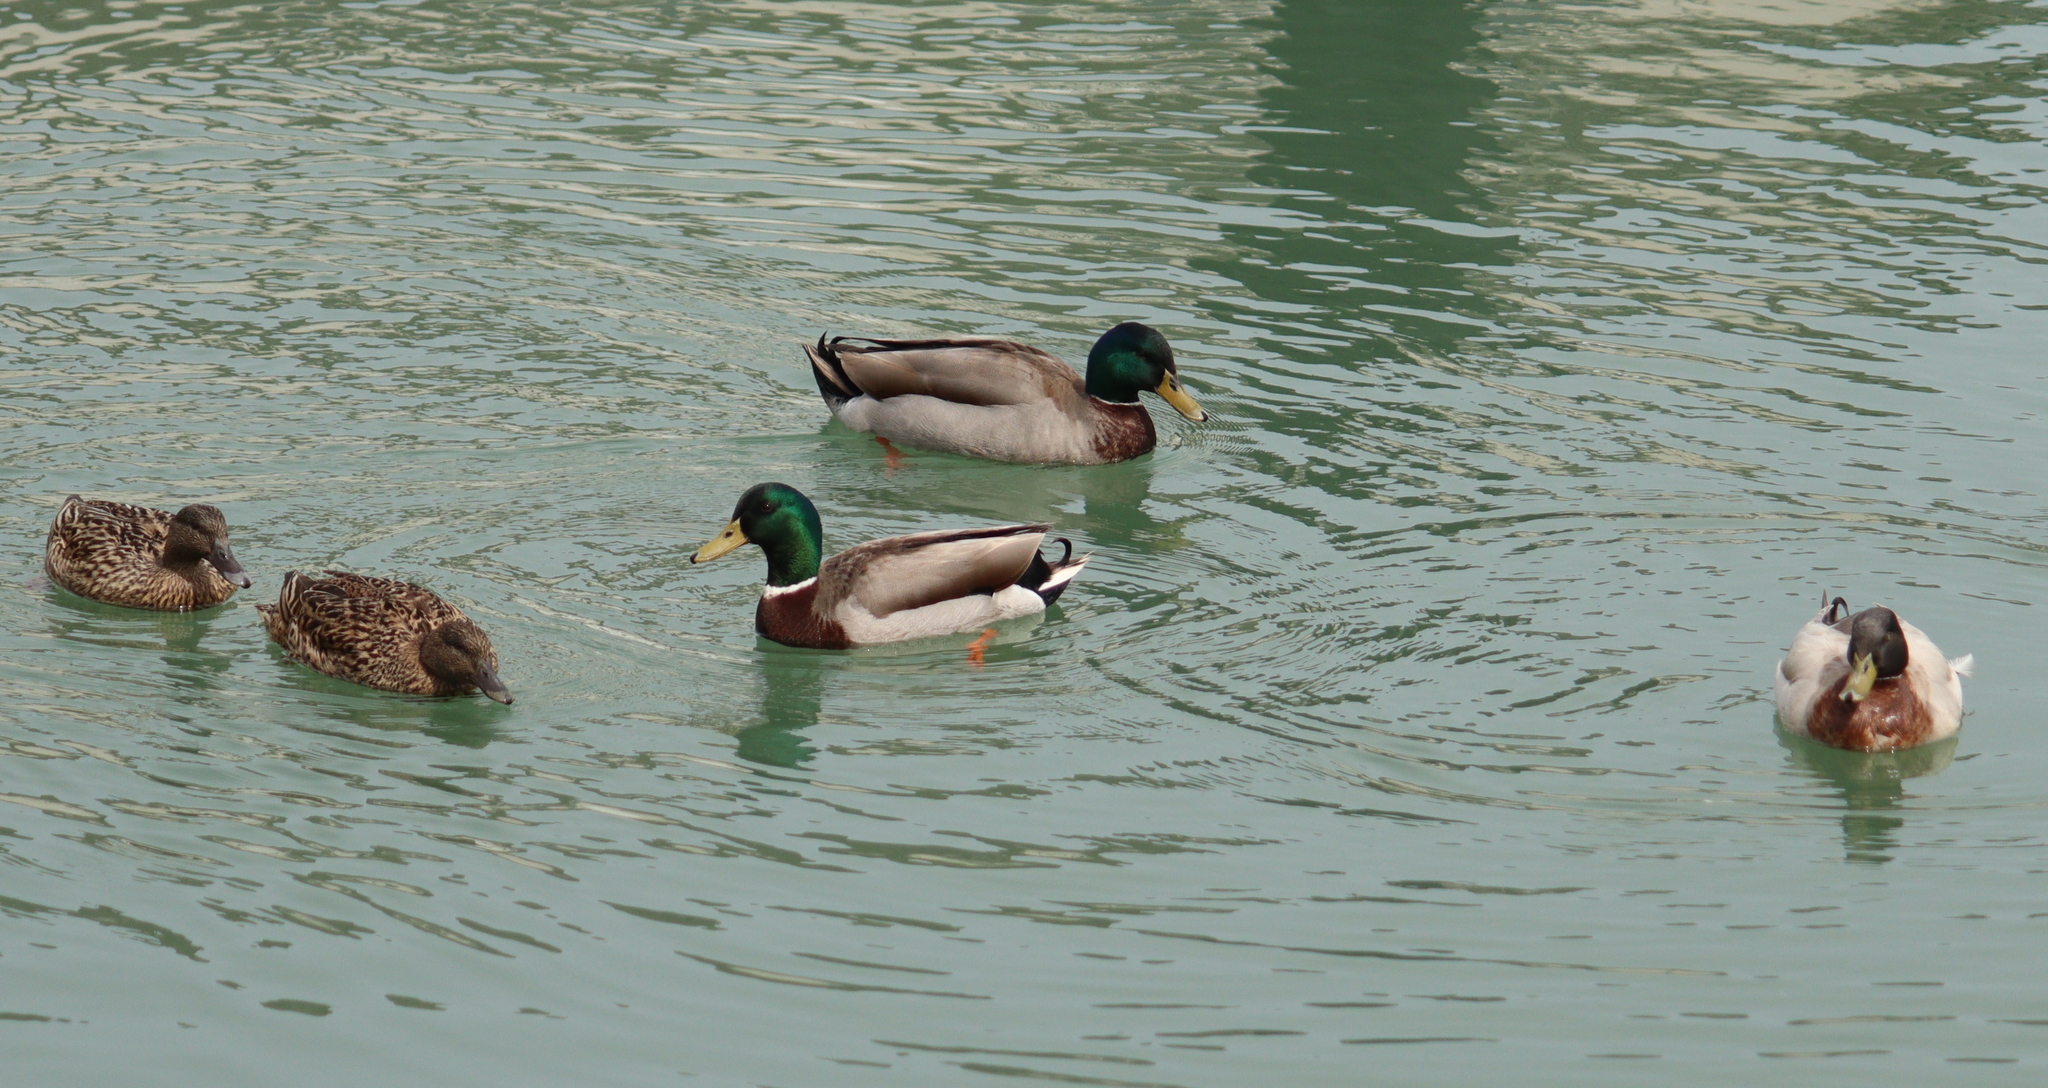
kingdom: Animalia
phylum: Chordata
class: Aves
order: Anseriformes
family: Anatidae
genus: Anas
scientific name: Anas platyrhynchos
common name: Mallard
